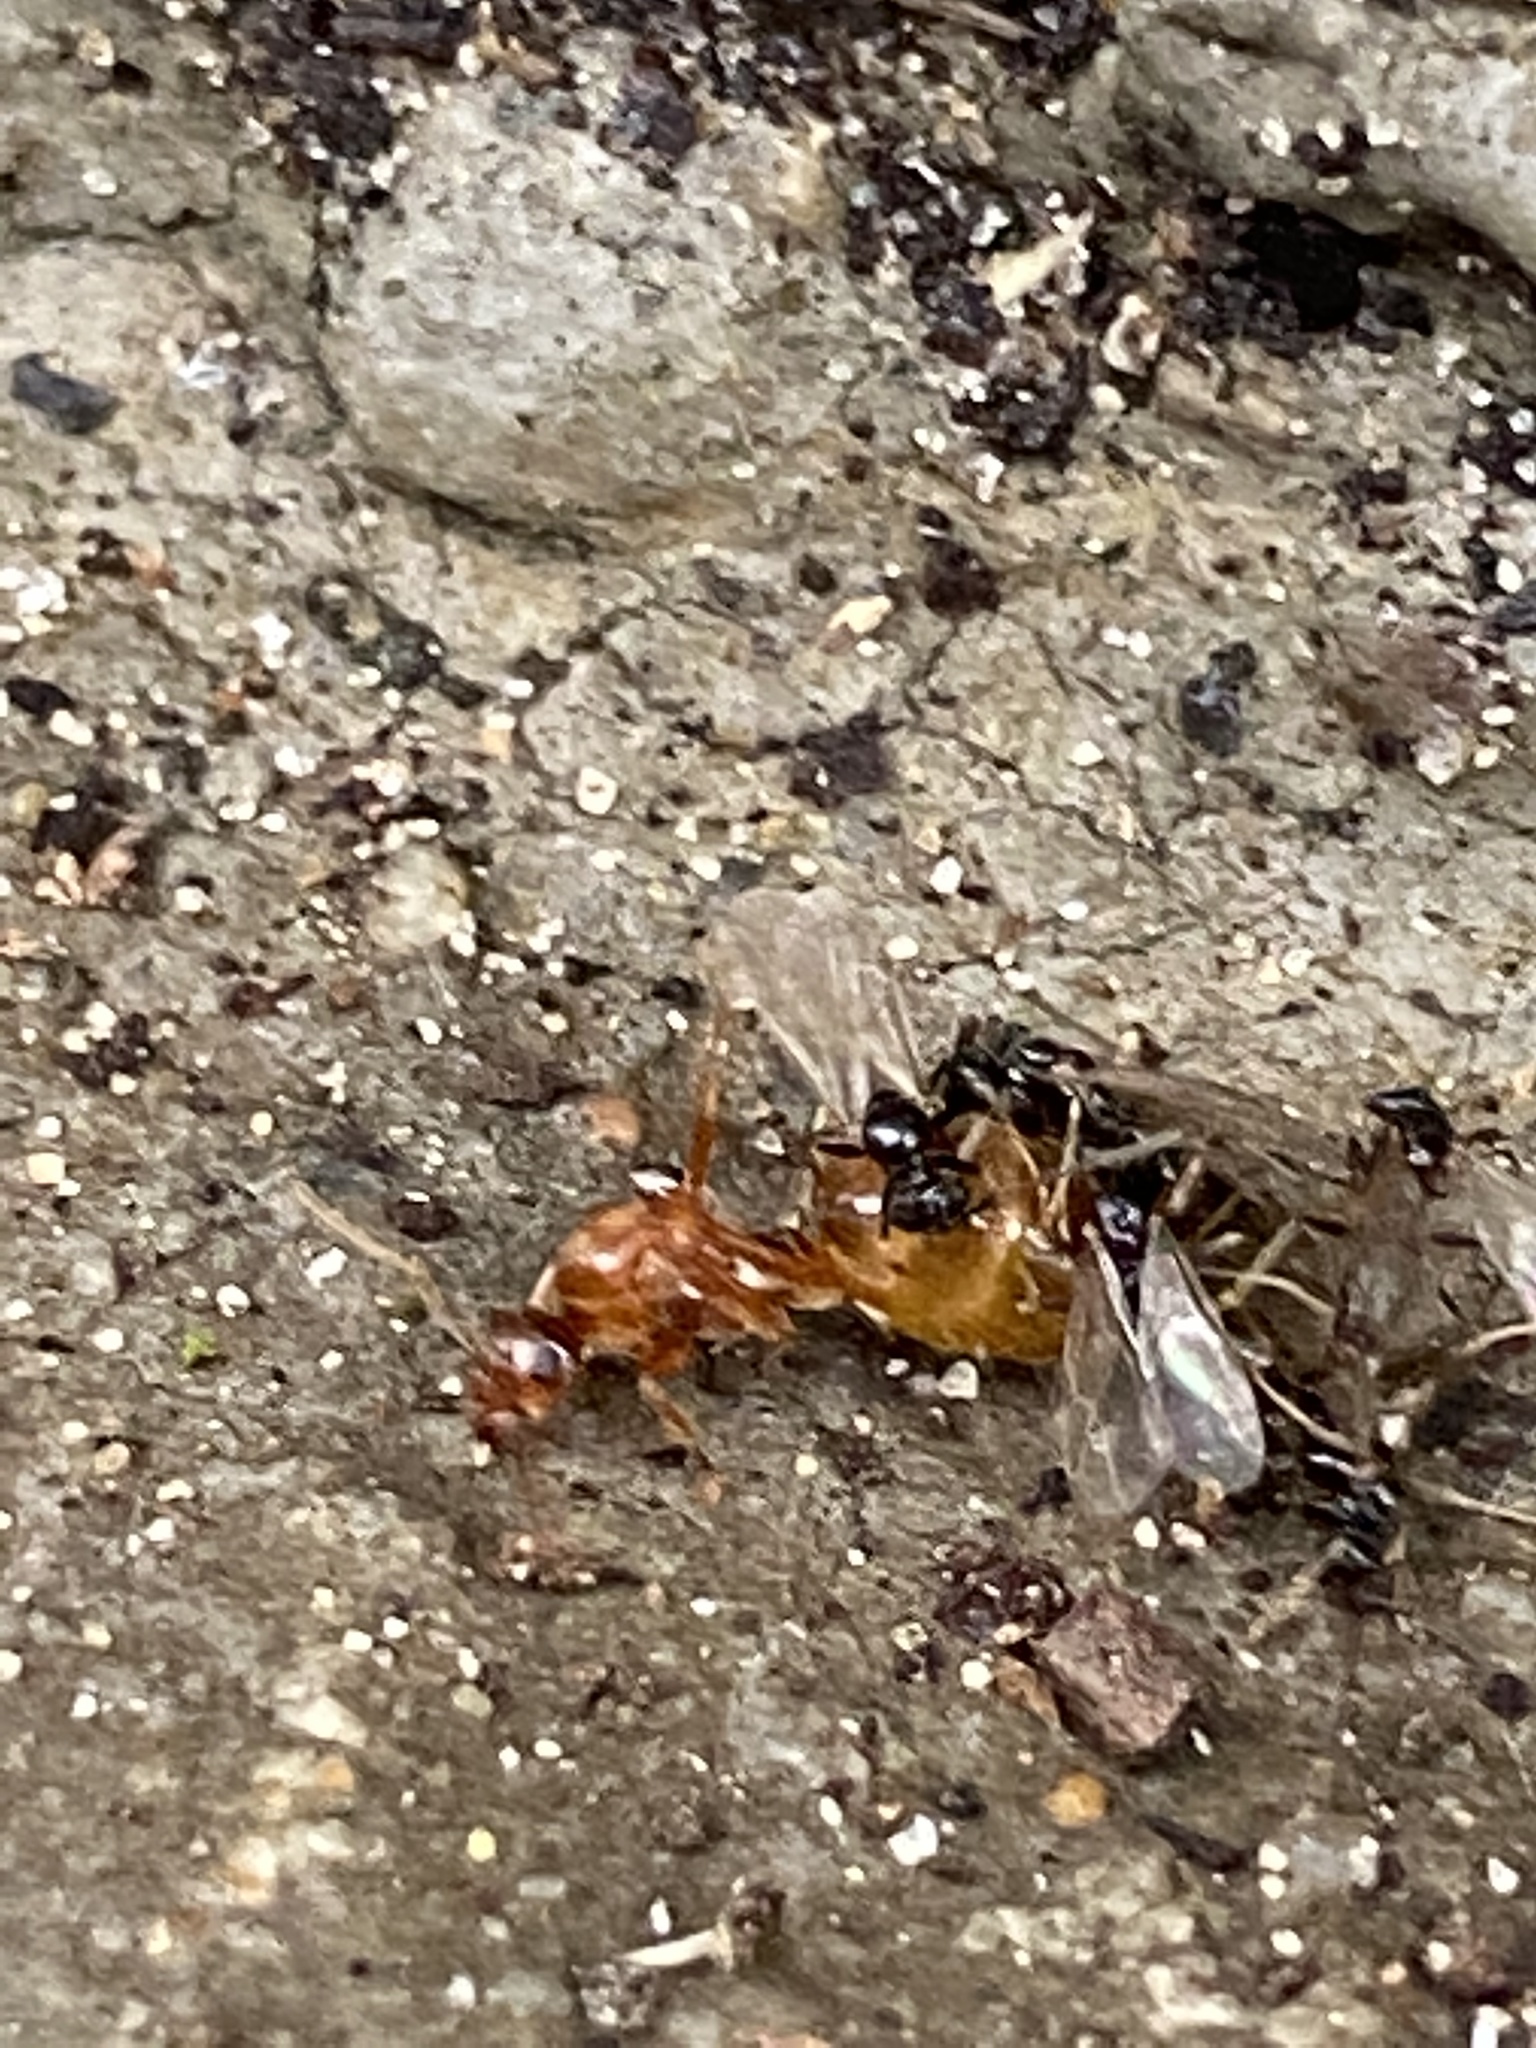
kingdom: Animalia
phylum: Arthropoda
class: Insecta
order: Hymenoptera
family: Formicidae
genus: Prenolepis
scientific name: Prenolepis imparis
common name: Small honey ant
